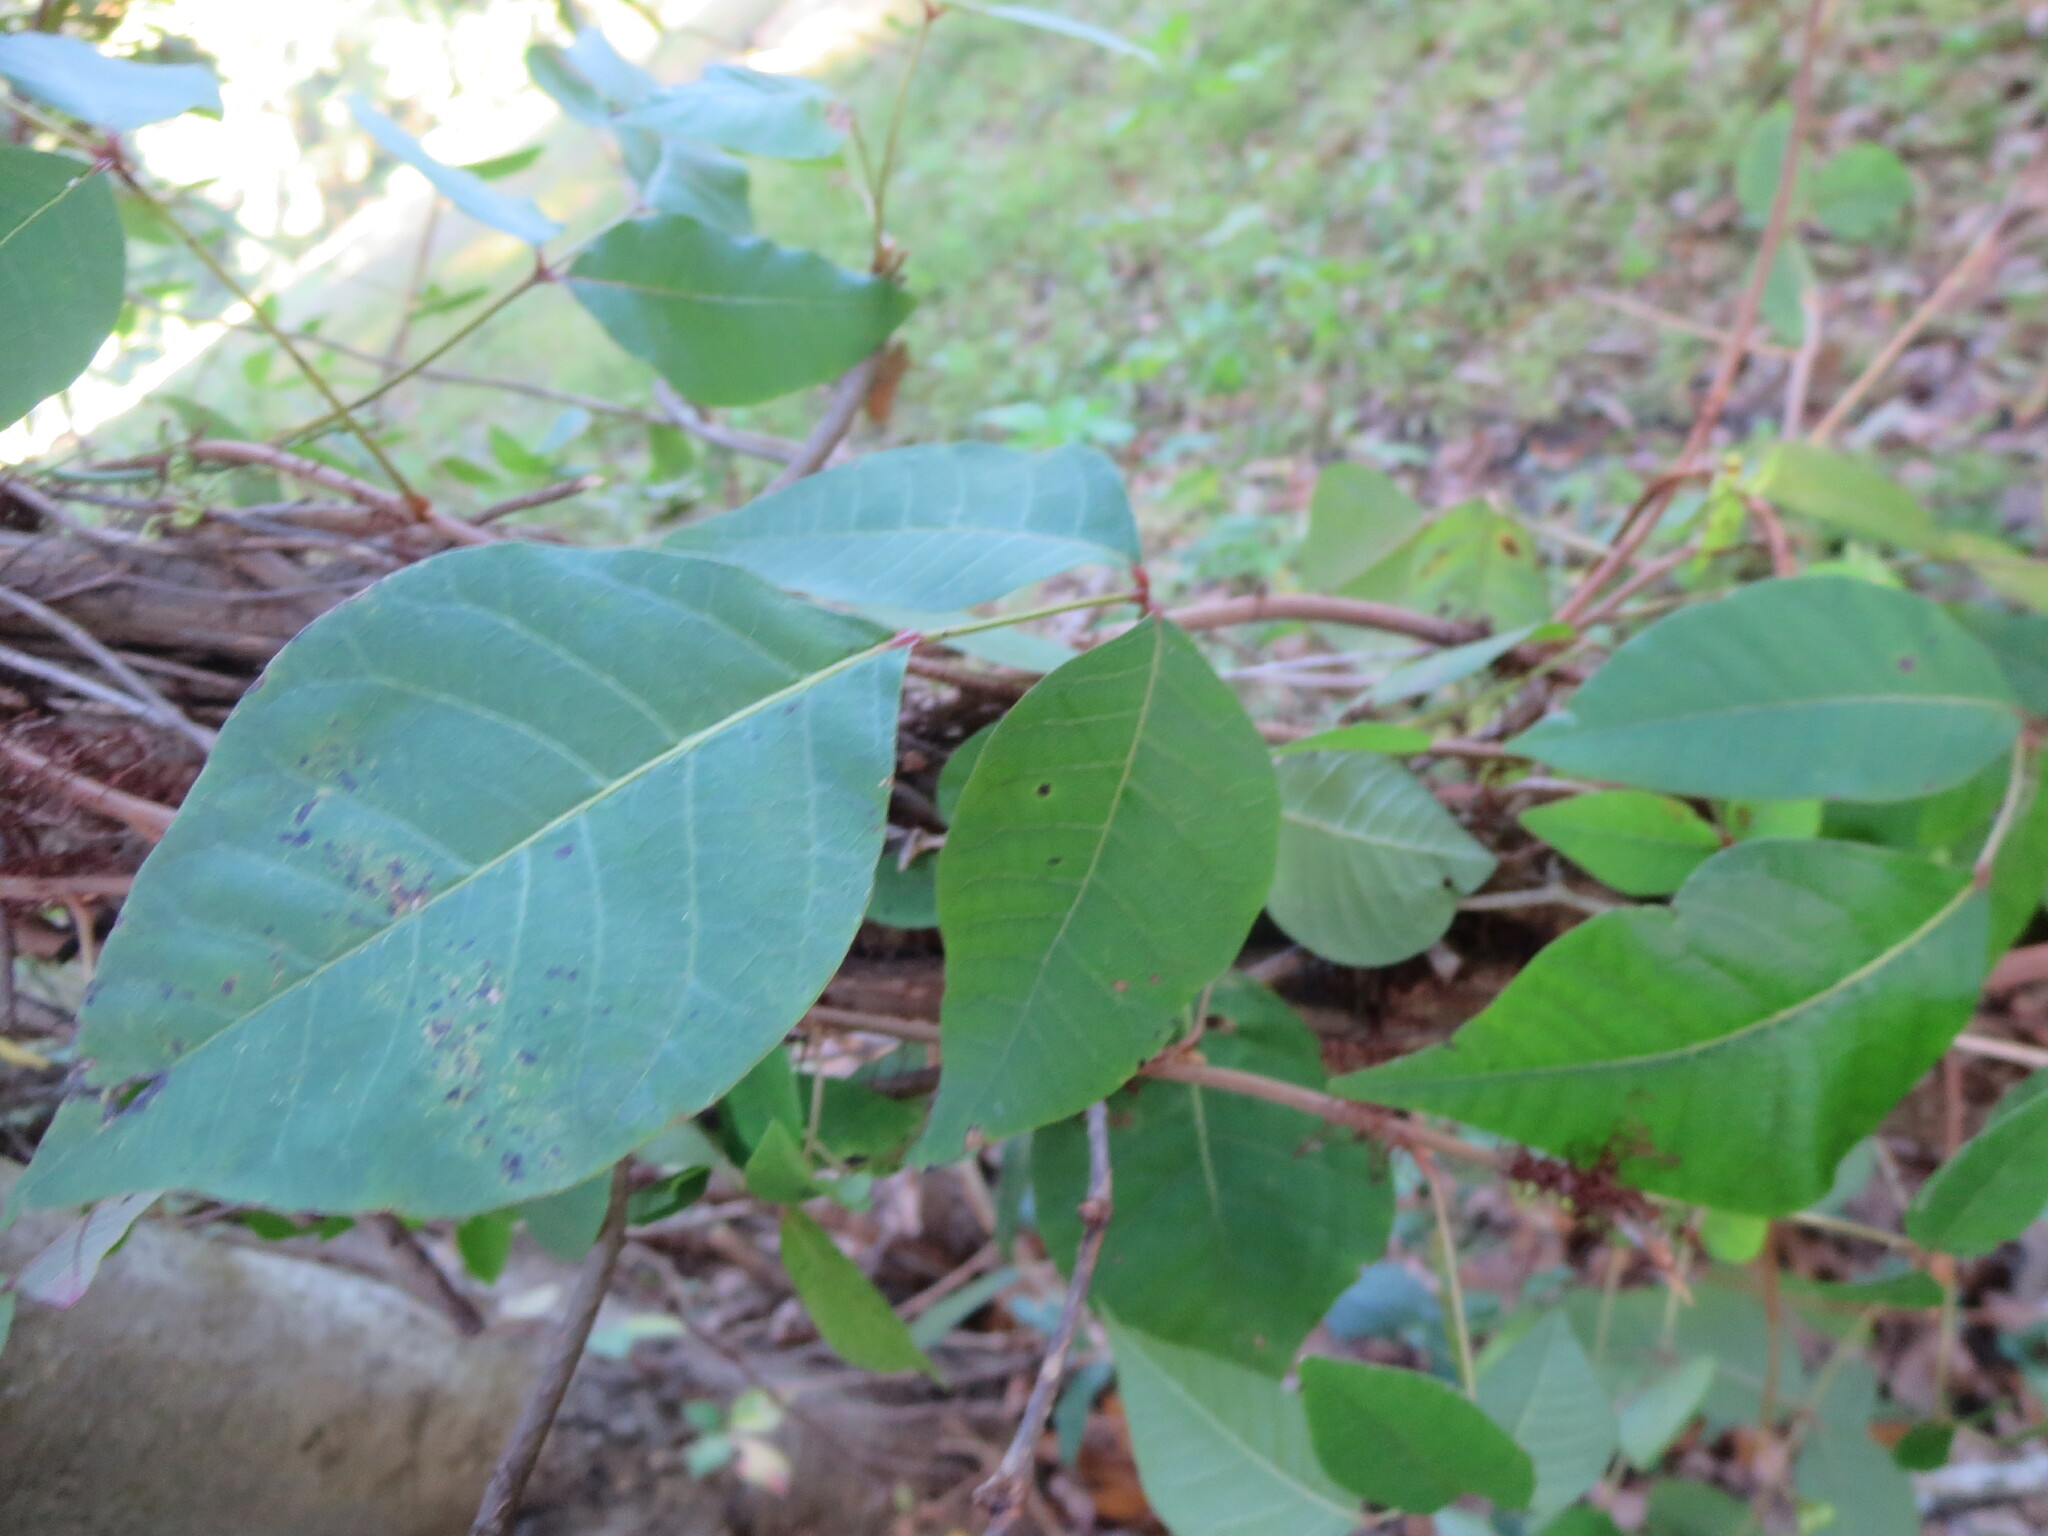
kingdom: Plantae
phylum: Tracheophyta
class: Magnoliopsida
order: Sapindales
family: Anacardiaceae
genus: Toxicodendron
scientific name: Toxicodendron radicans
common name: Poison ivy
